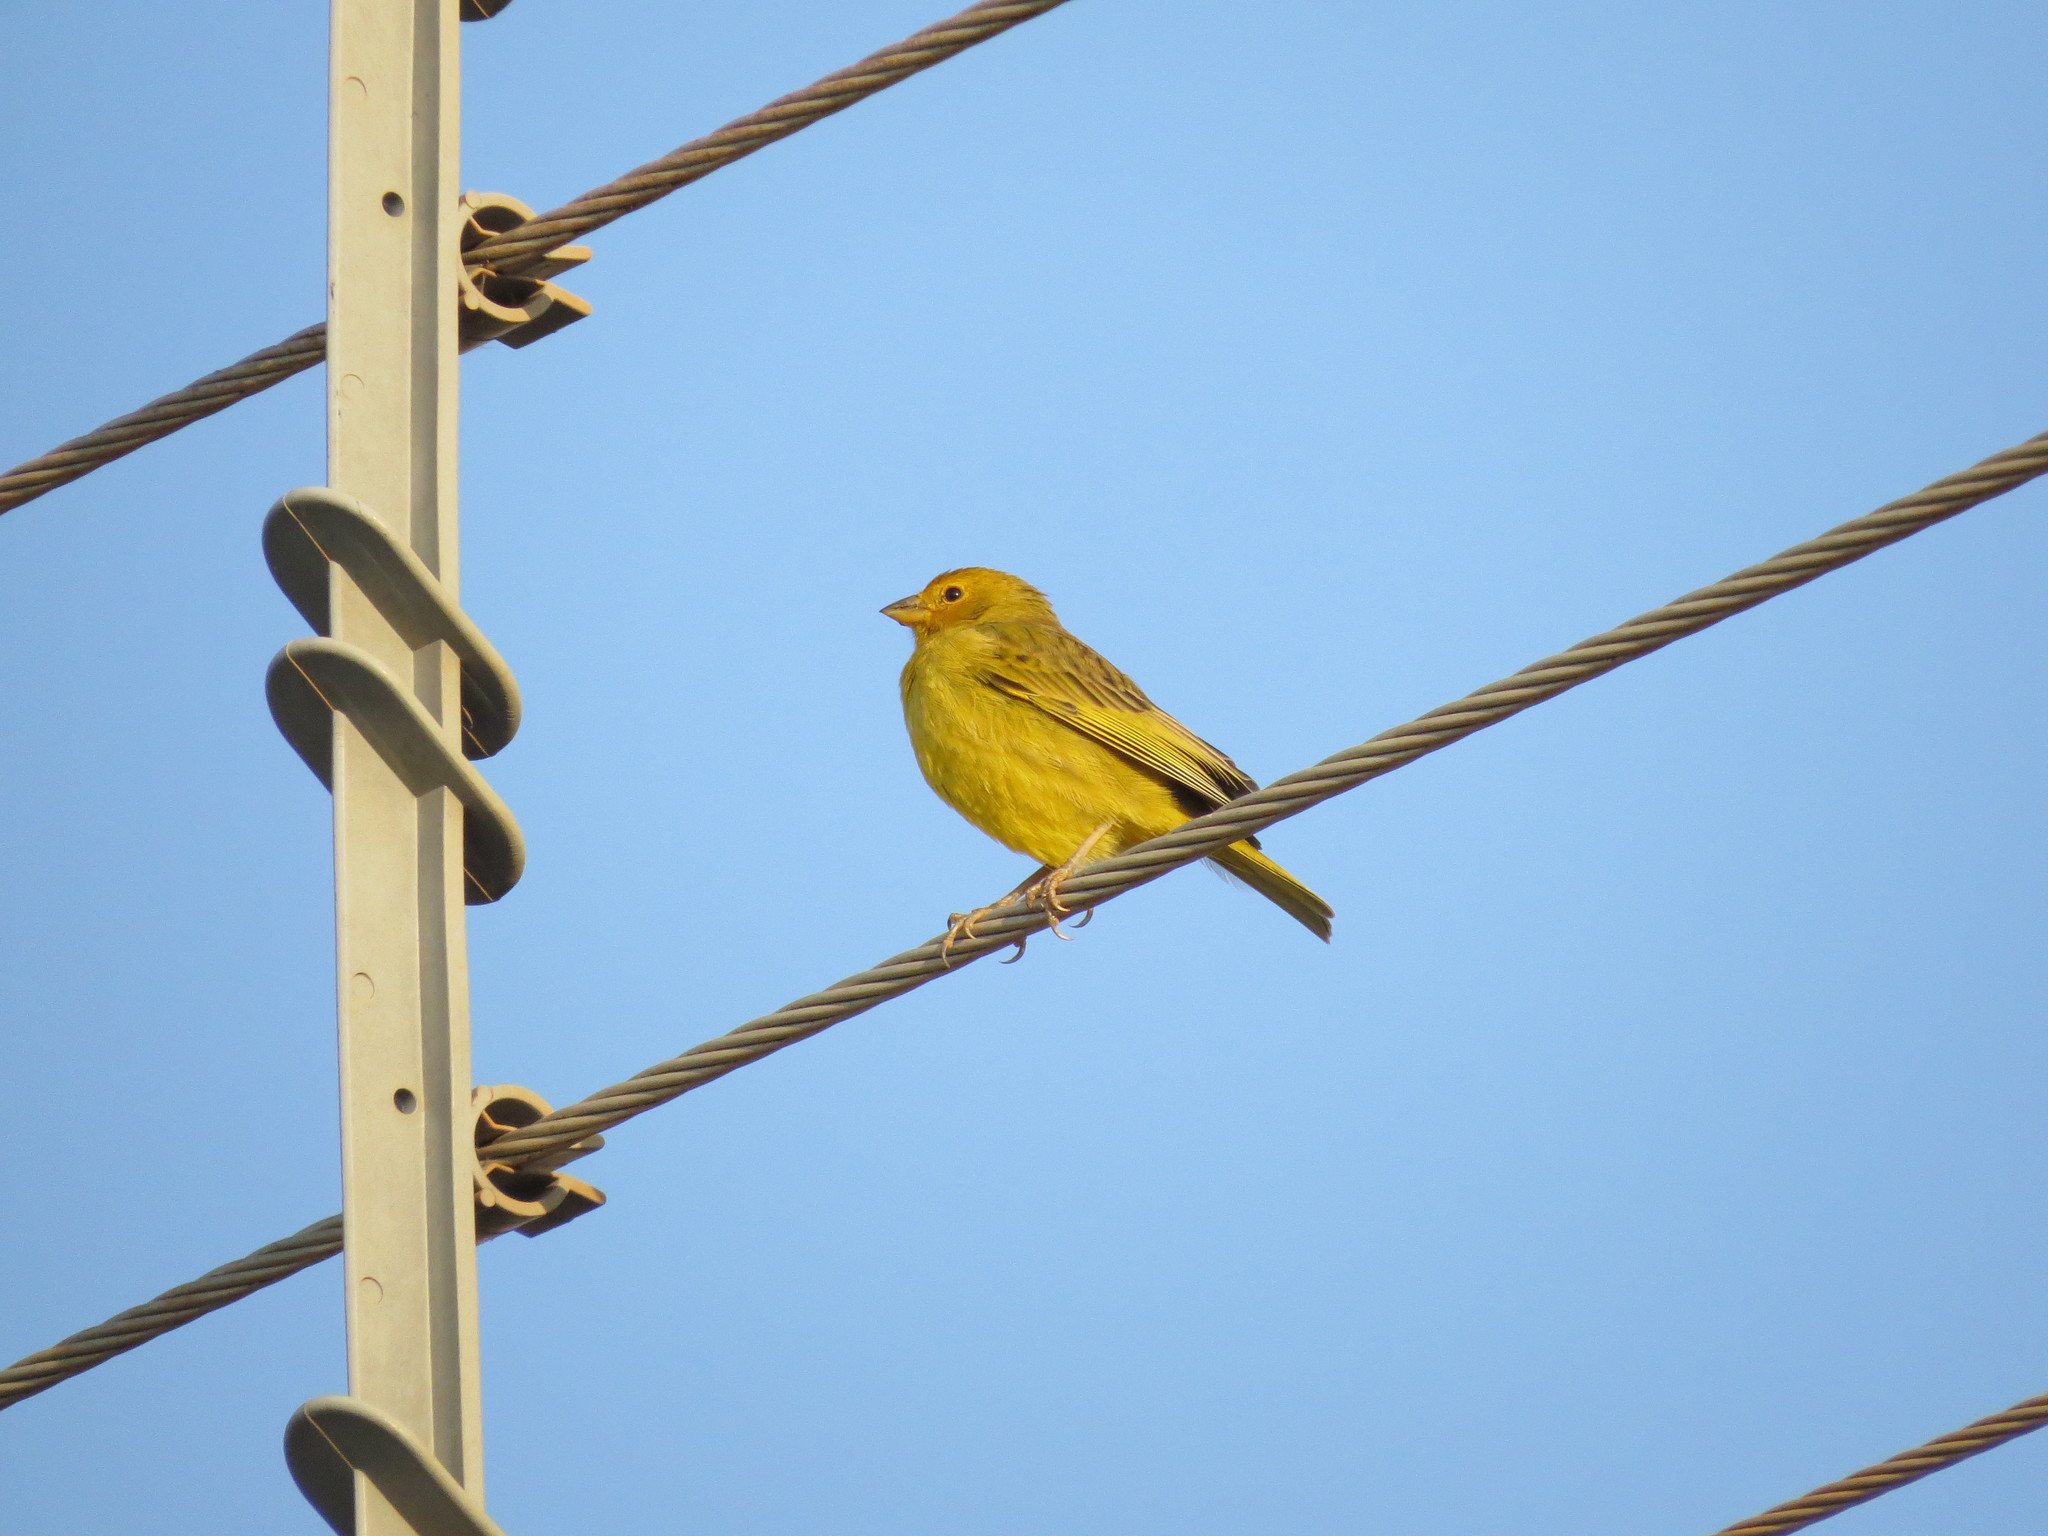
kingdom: Animalia
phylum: Chordata
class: Aves
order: Passeriformes
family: Thraupidae
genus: Sicalis
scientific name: Sicalis flaveola
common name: Saffron finch
